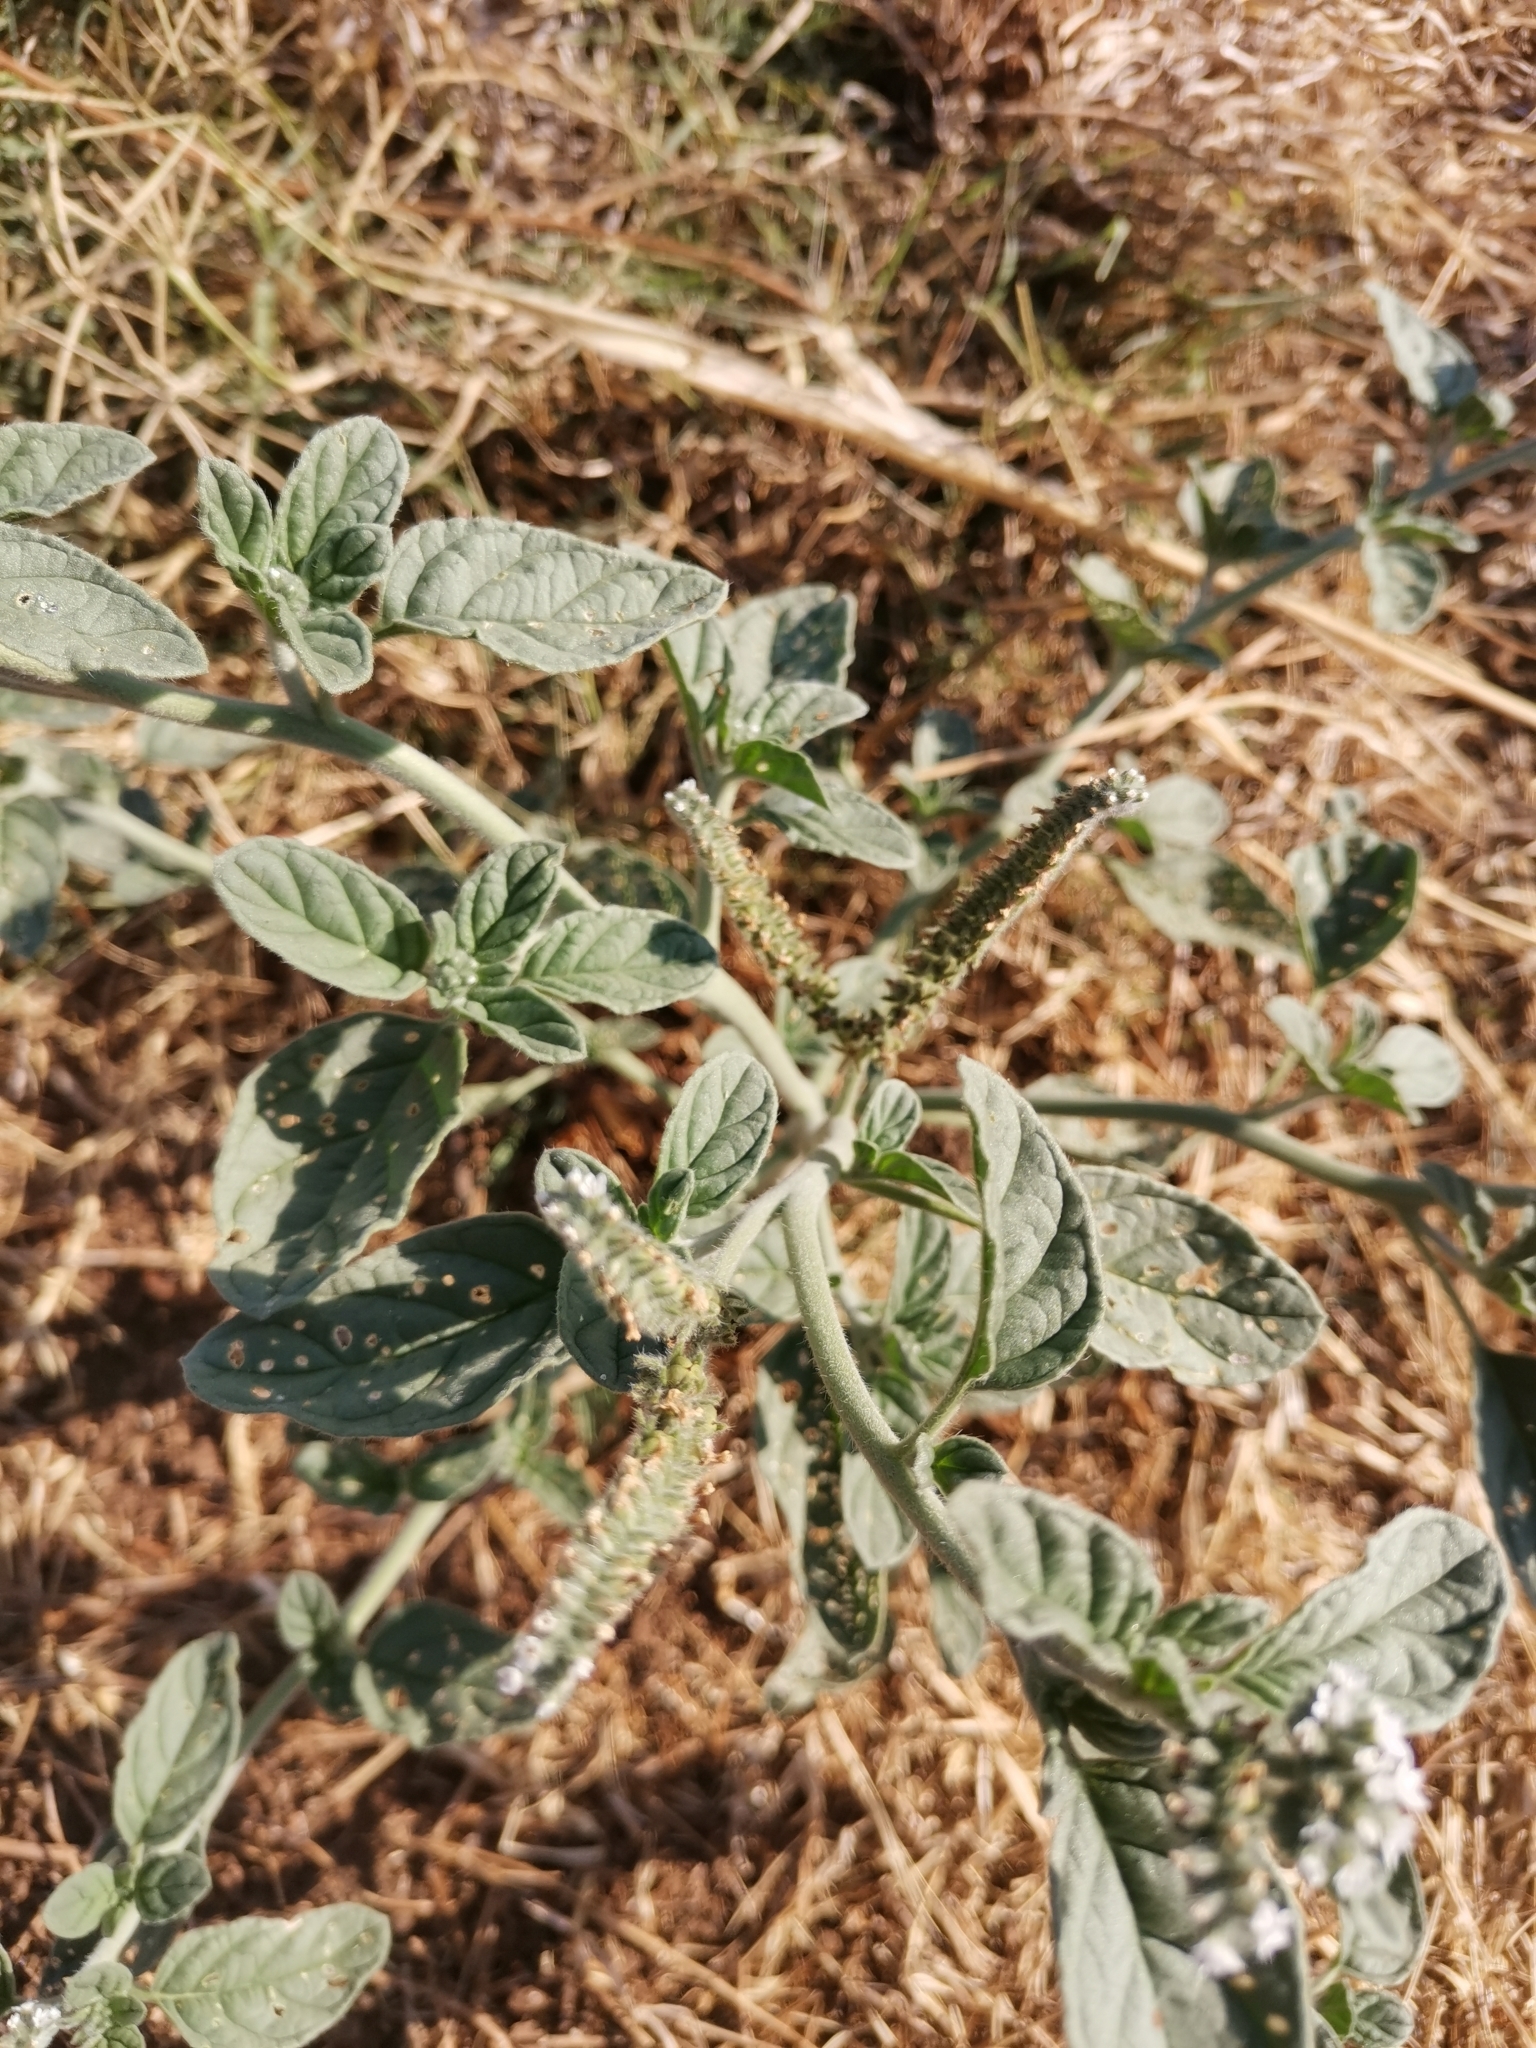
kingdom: Plantae
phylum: Tracheophyta
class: Magnoliopsida
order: Boraginales
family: Heliotropiaceae
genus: Heliotropium
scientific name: Heliotropium europaeum
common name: European heliotrope
